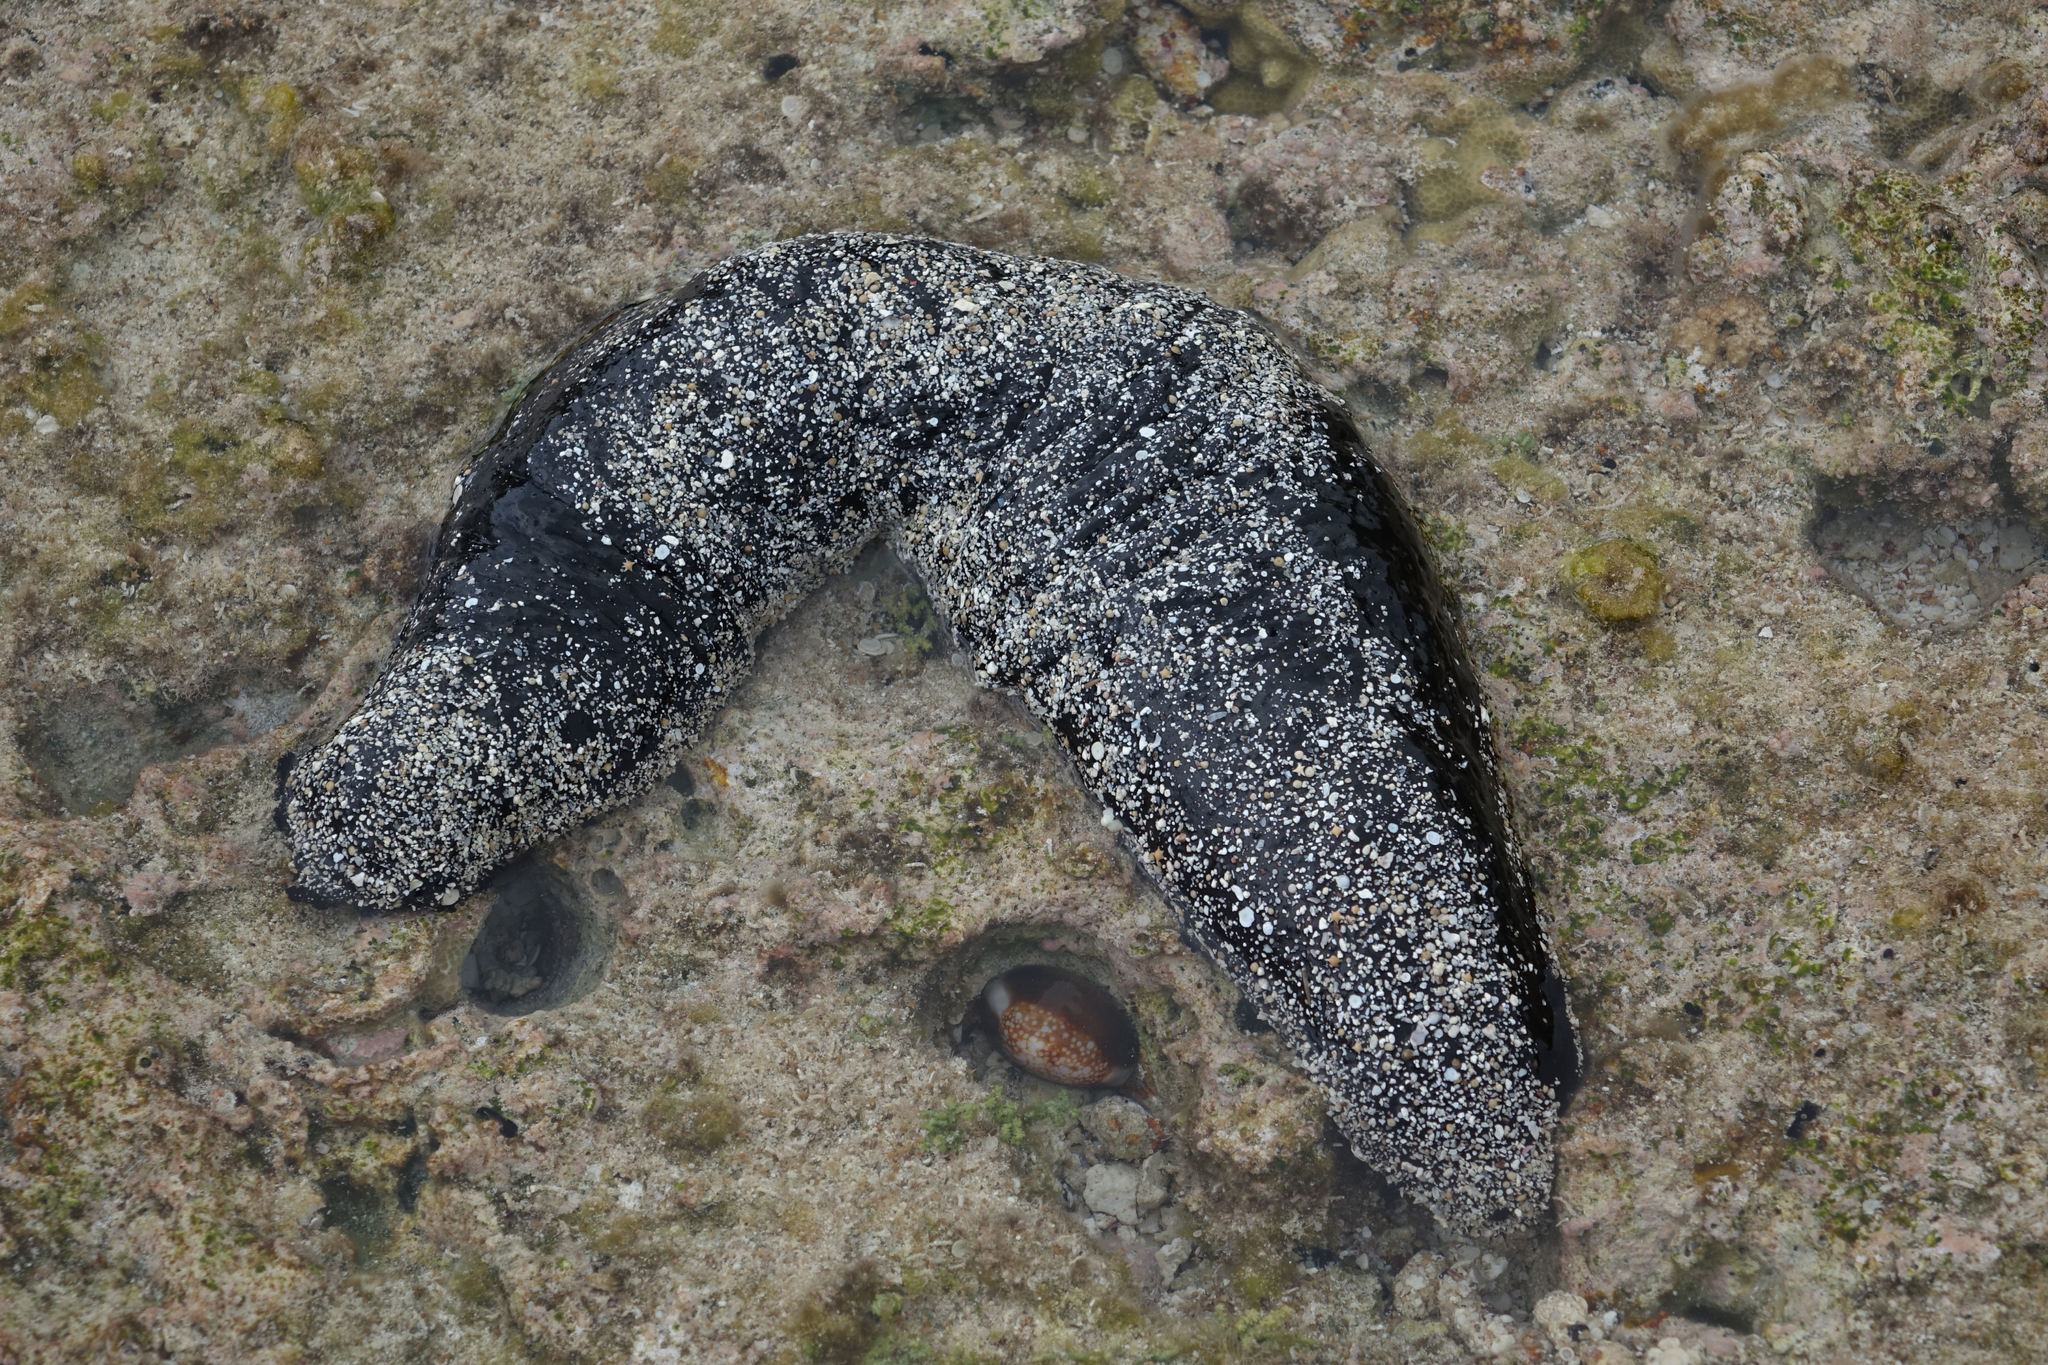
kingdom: Animalia
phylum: Echinodermata
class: Holothuroidea
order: Holothuriida
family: Holothuriidae
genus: Holothuria
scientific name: Holothuria atra
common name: Lollyfish
